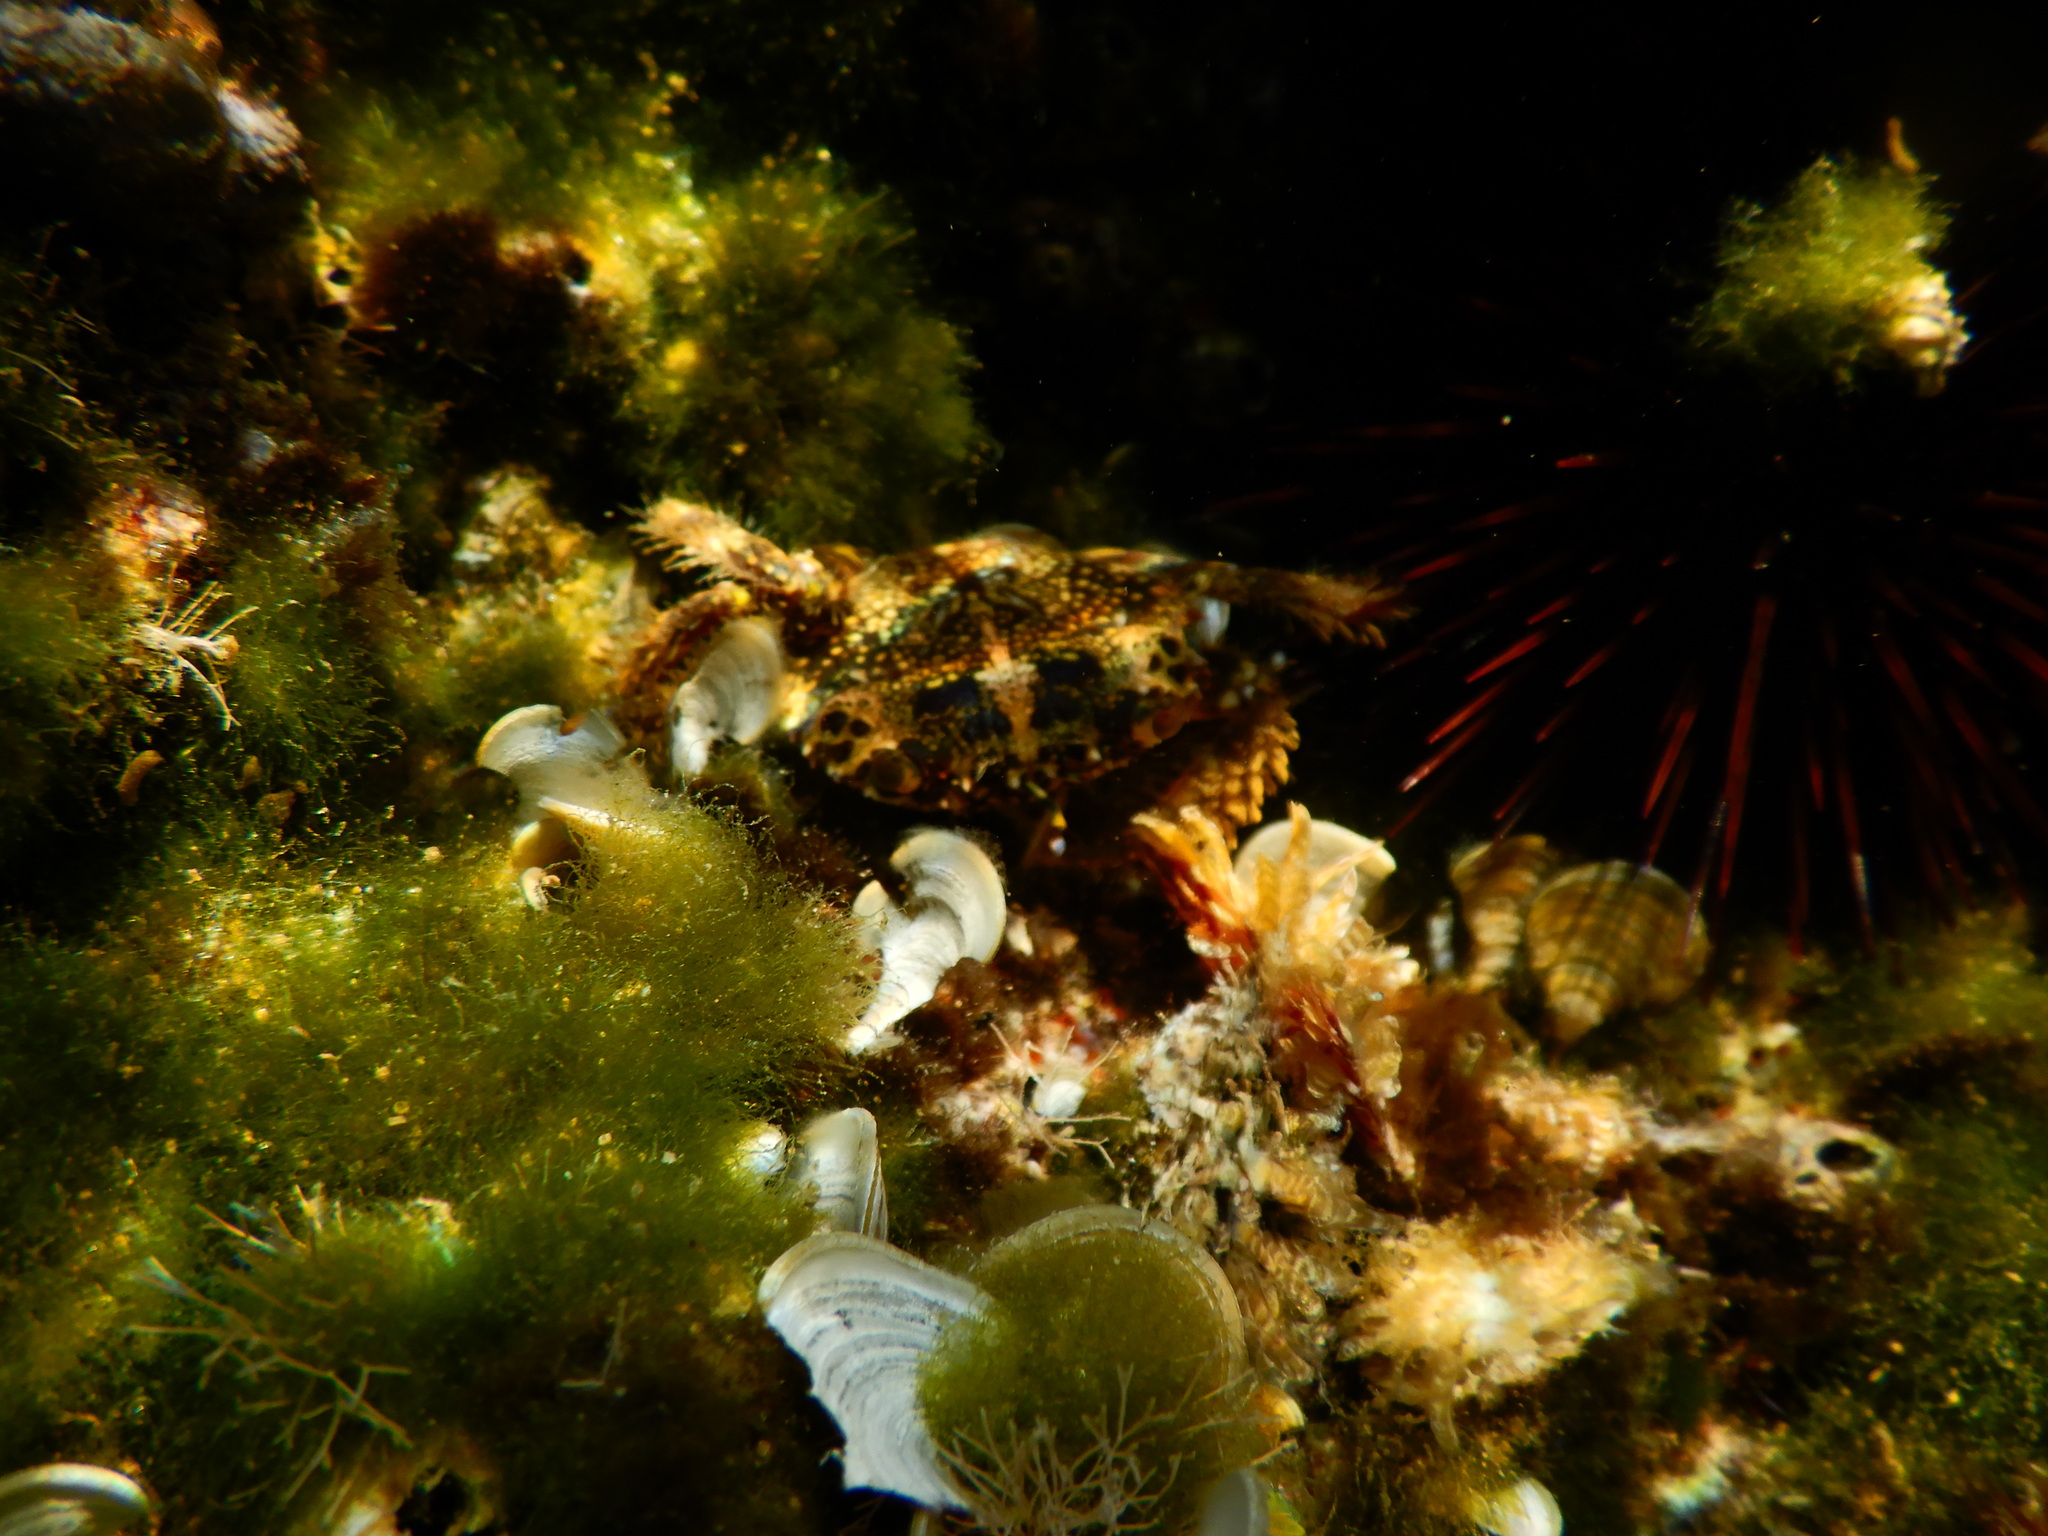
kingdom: Animalia
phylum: Arthropoda
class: Malacostraca
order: Decapoda
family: Eriphiidae
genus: Eriphia
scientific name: Eriphia verrucosa
